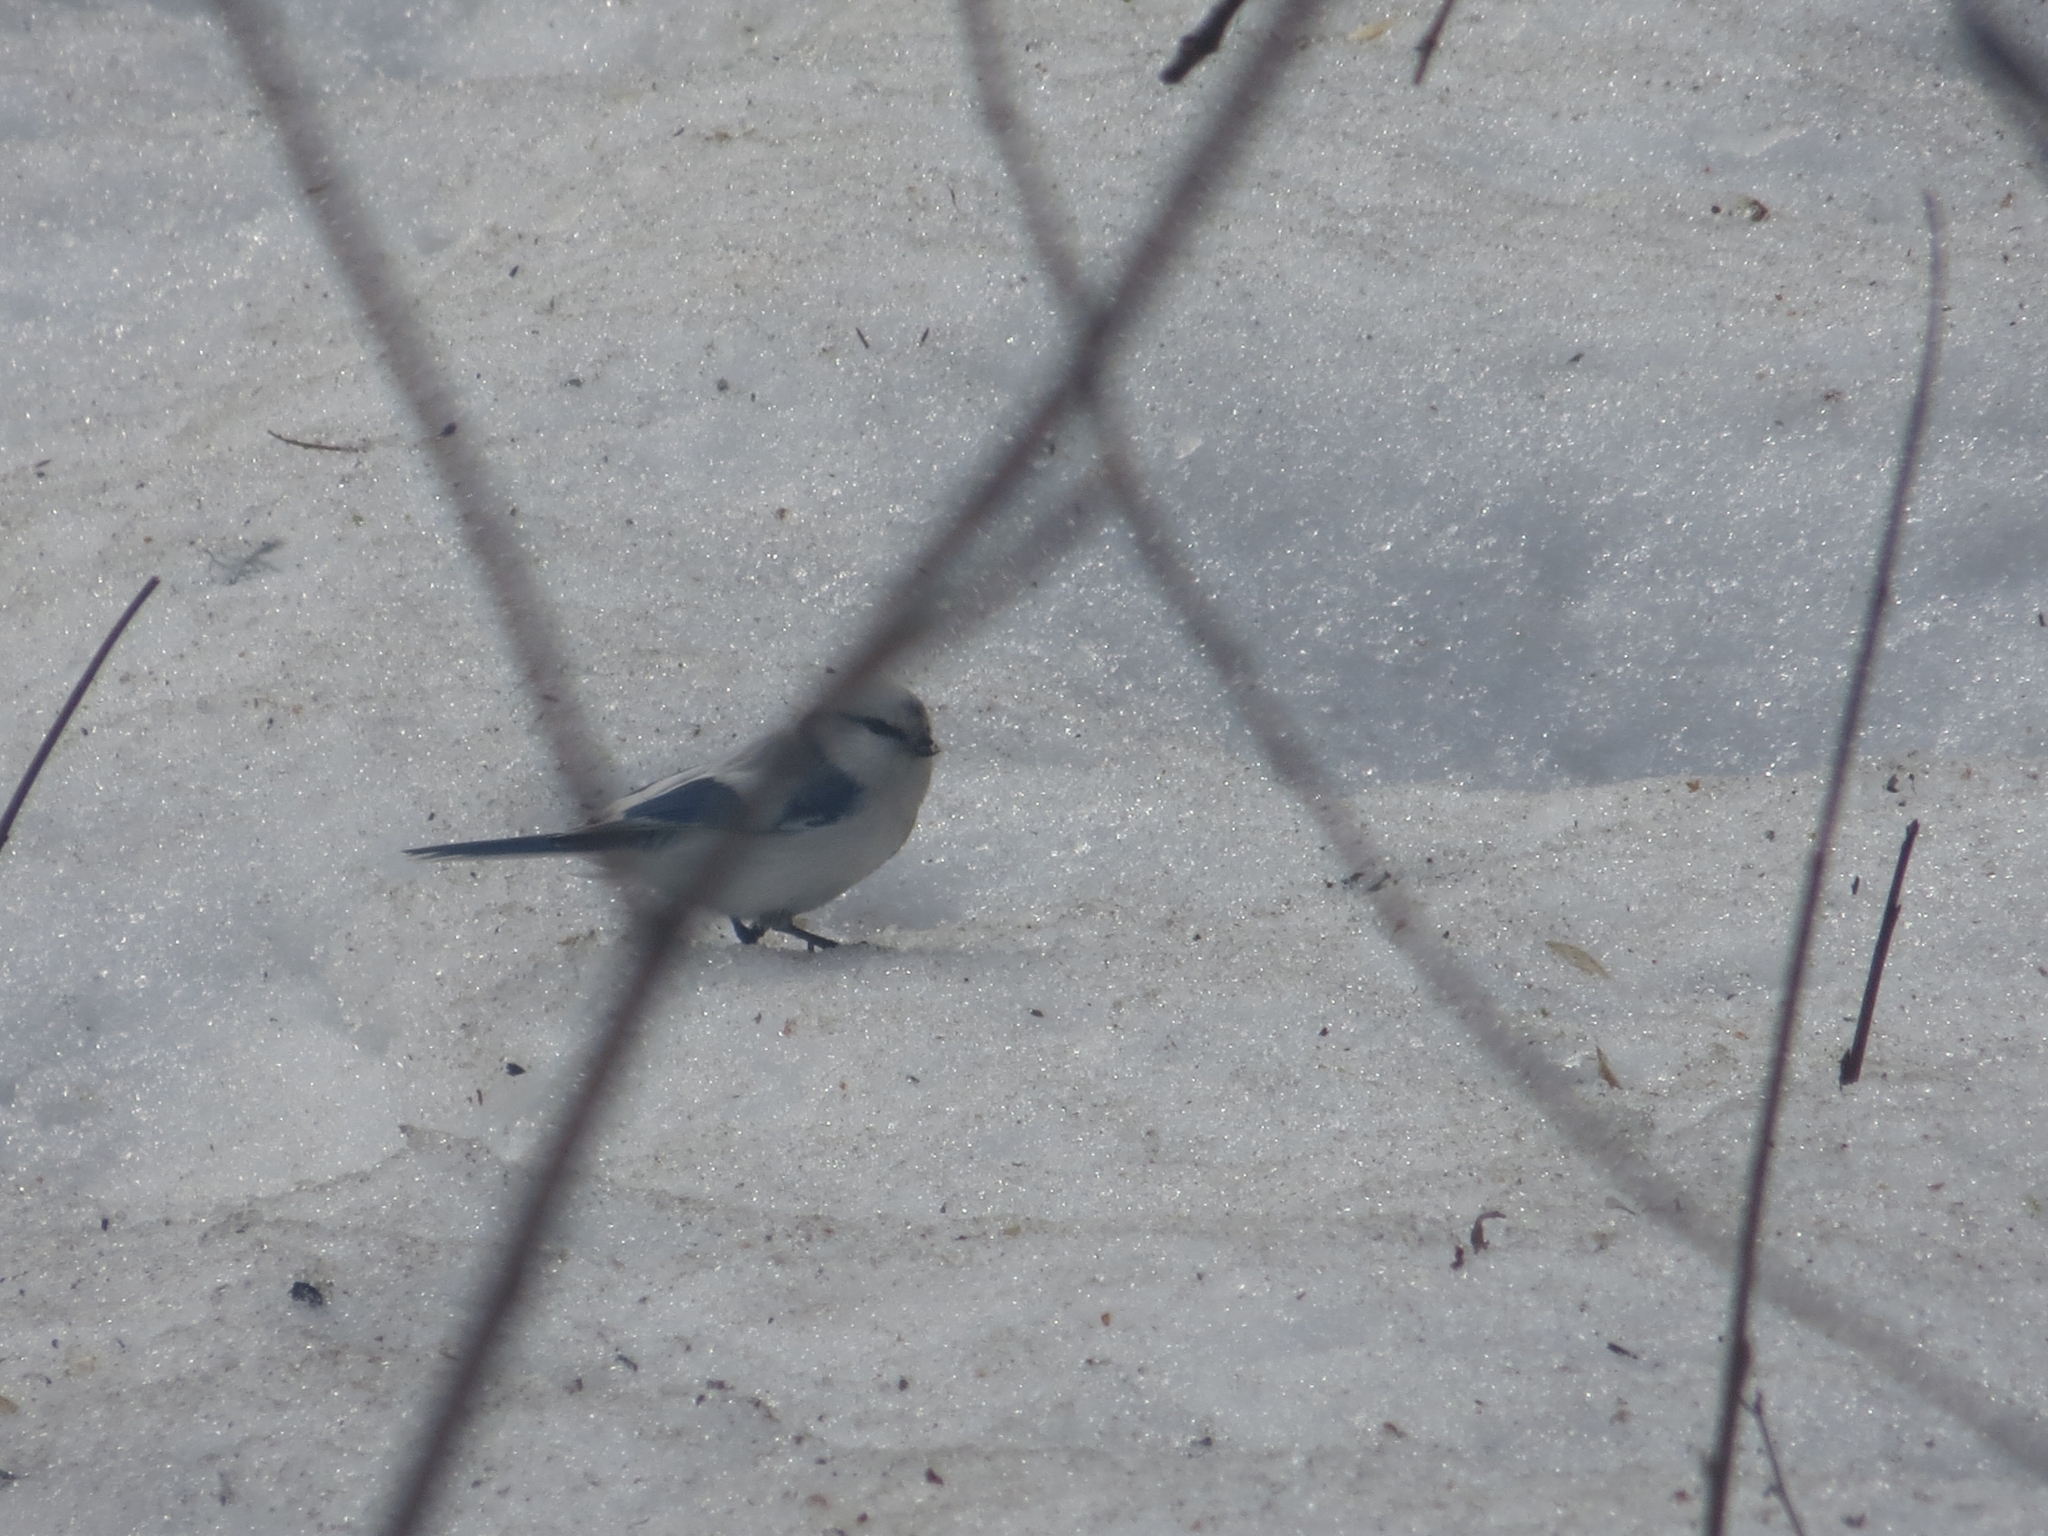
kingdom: Animalia
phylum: Chordata
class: Aves
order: Passeriformes
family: Paridae
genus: Cyanistes
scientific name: Cyanistes cyanus
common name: Azure tit
